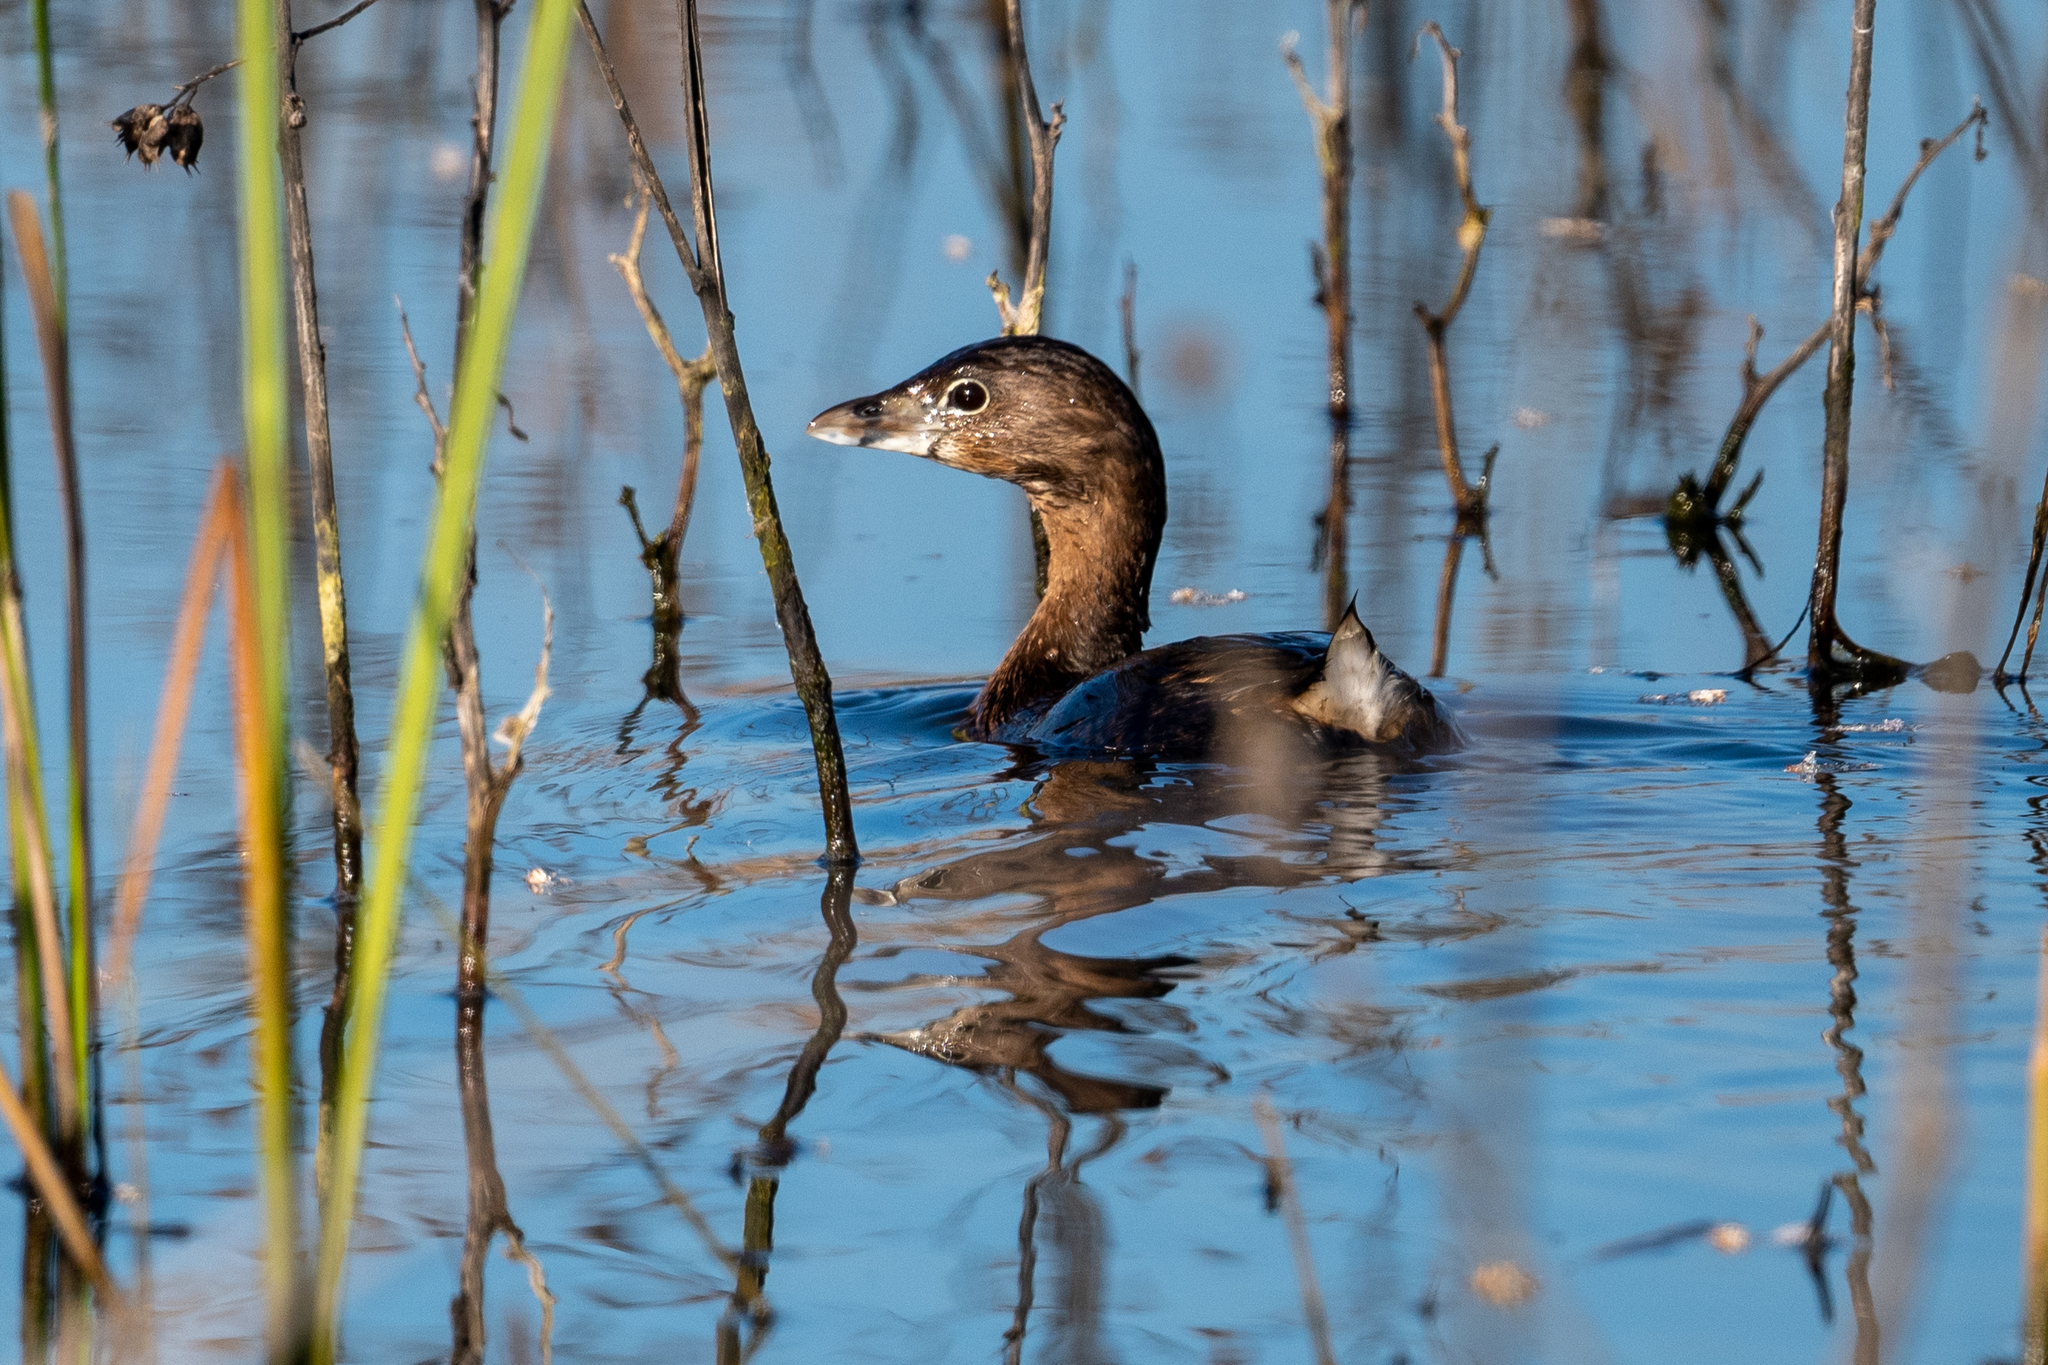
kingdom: Animalia
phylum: Chordata
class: Aves
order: Podicipediformes
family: Podicipedidae
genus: Podilymbus
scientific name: Podilymbus podiceps
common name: Pied-billed grebe
